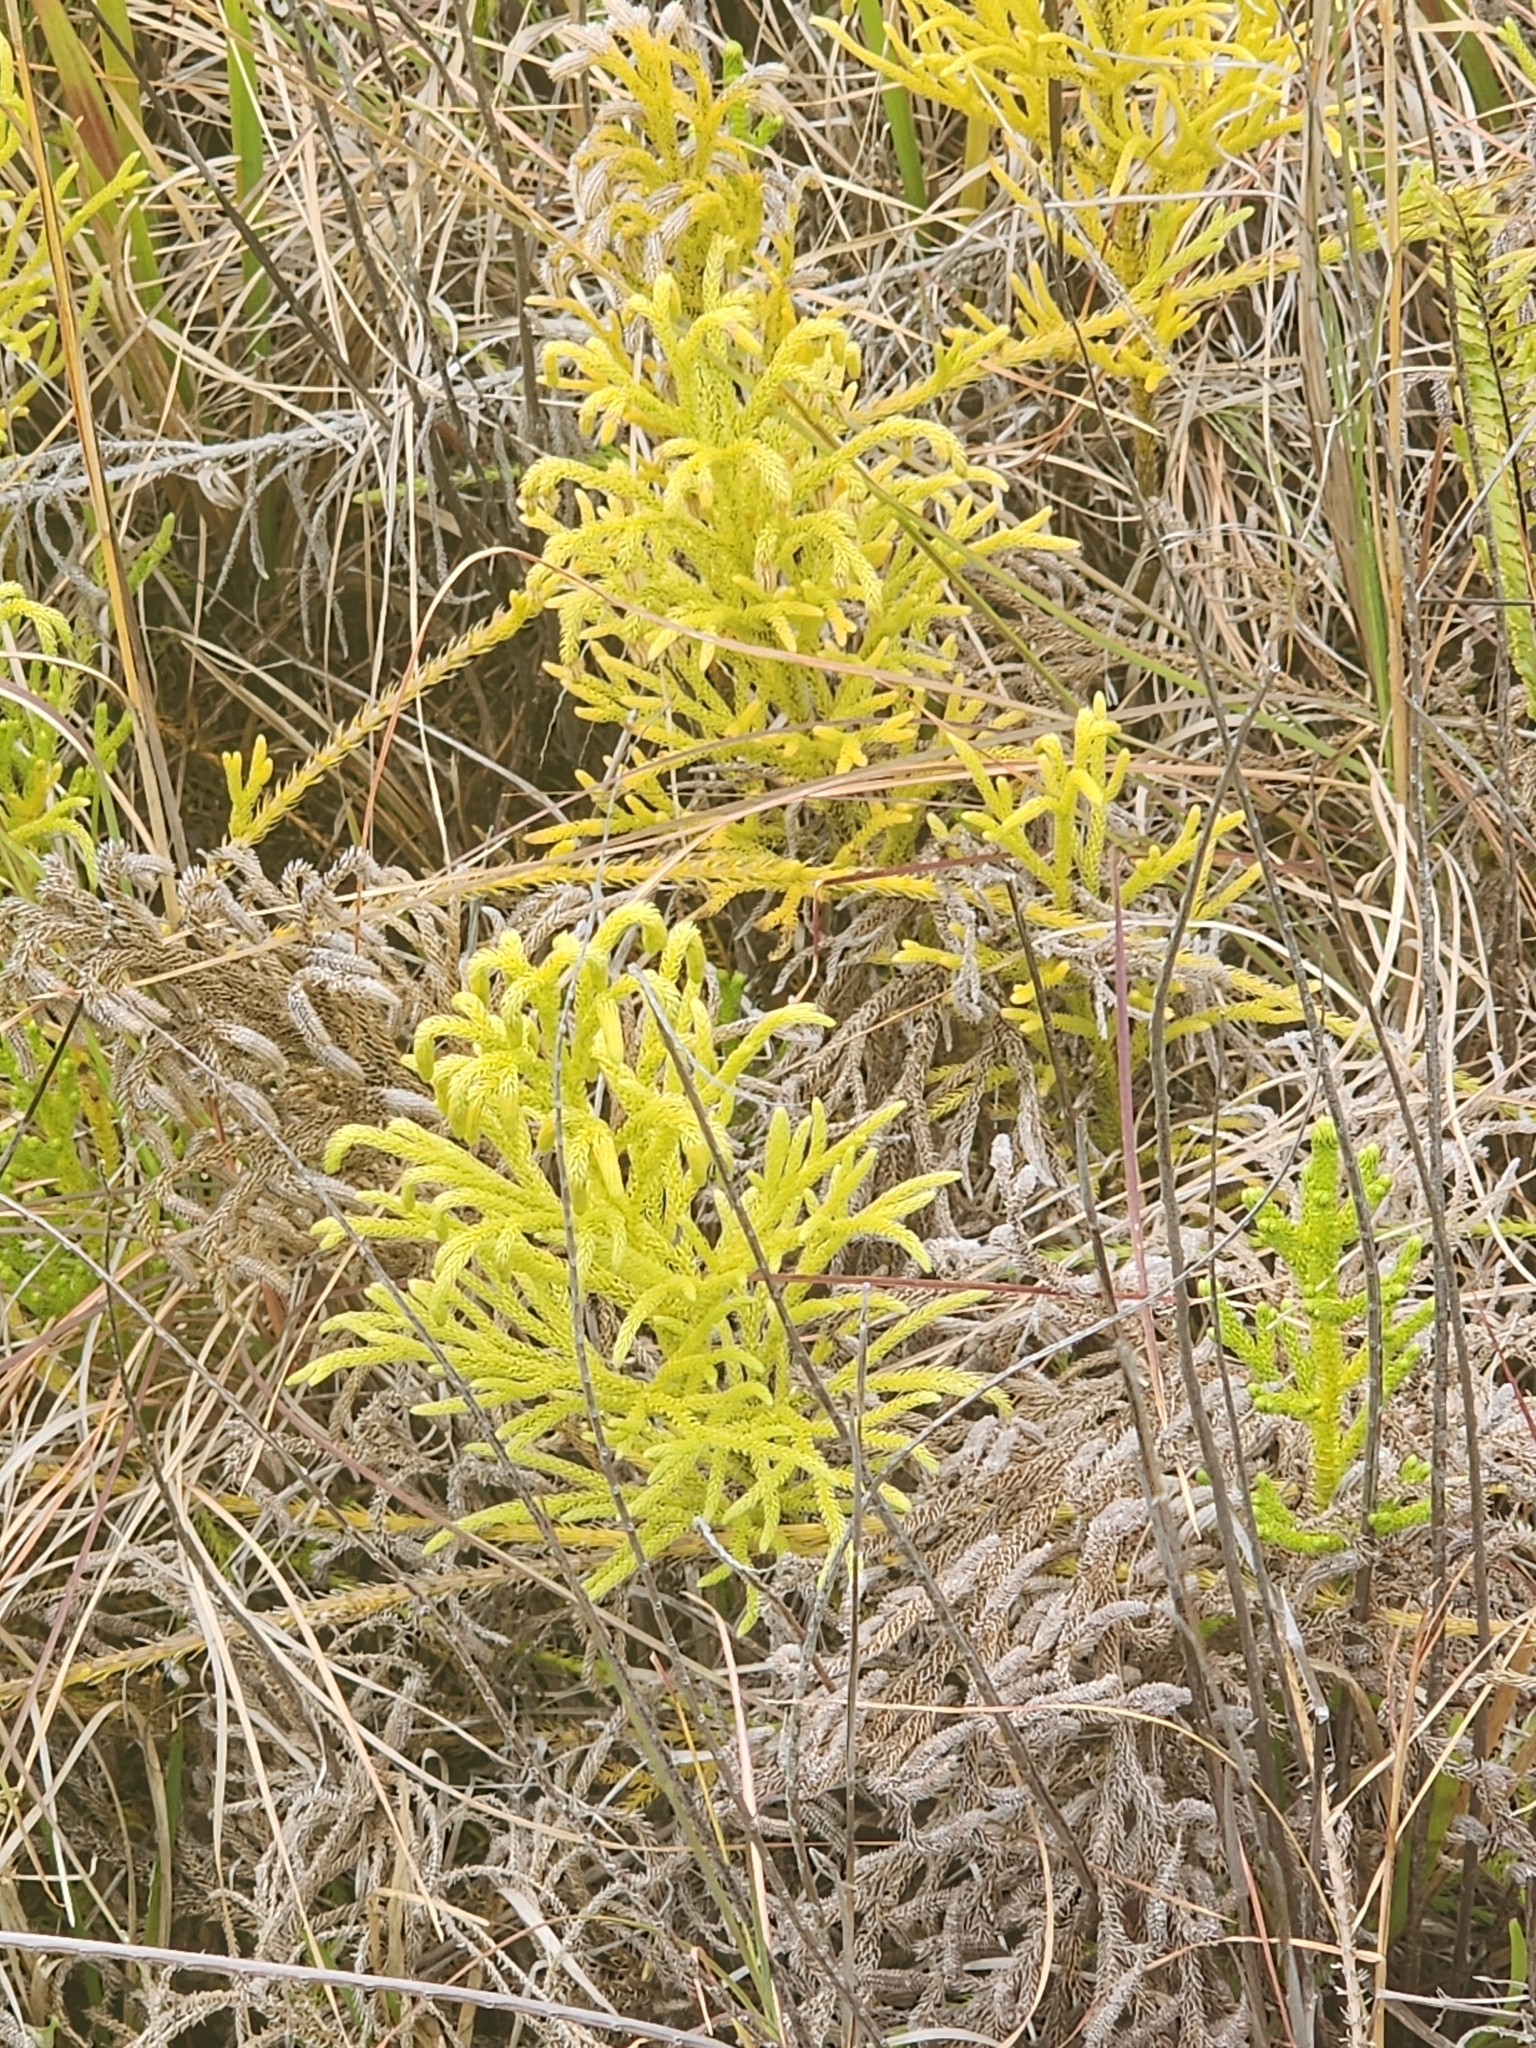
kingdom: Plantae
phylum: Tracheophyta
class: Lycopodiopsida
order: Lycopodiales
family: Lycopodiaceae
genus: Palhinhaea
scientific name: Palhinhaea cernua
